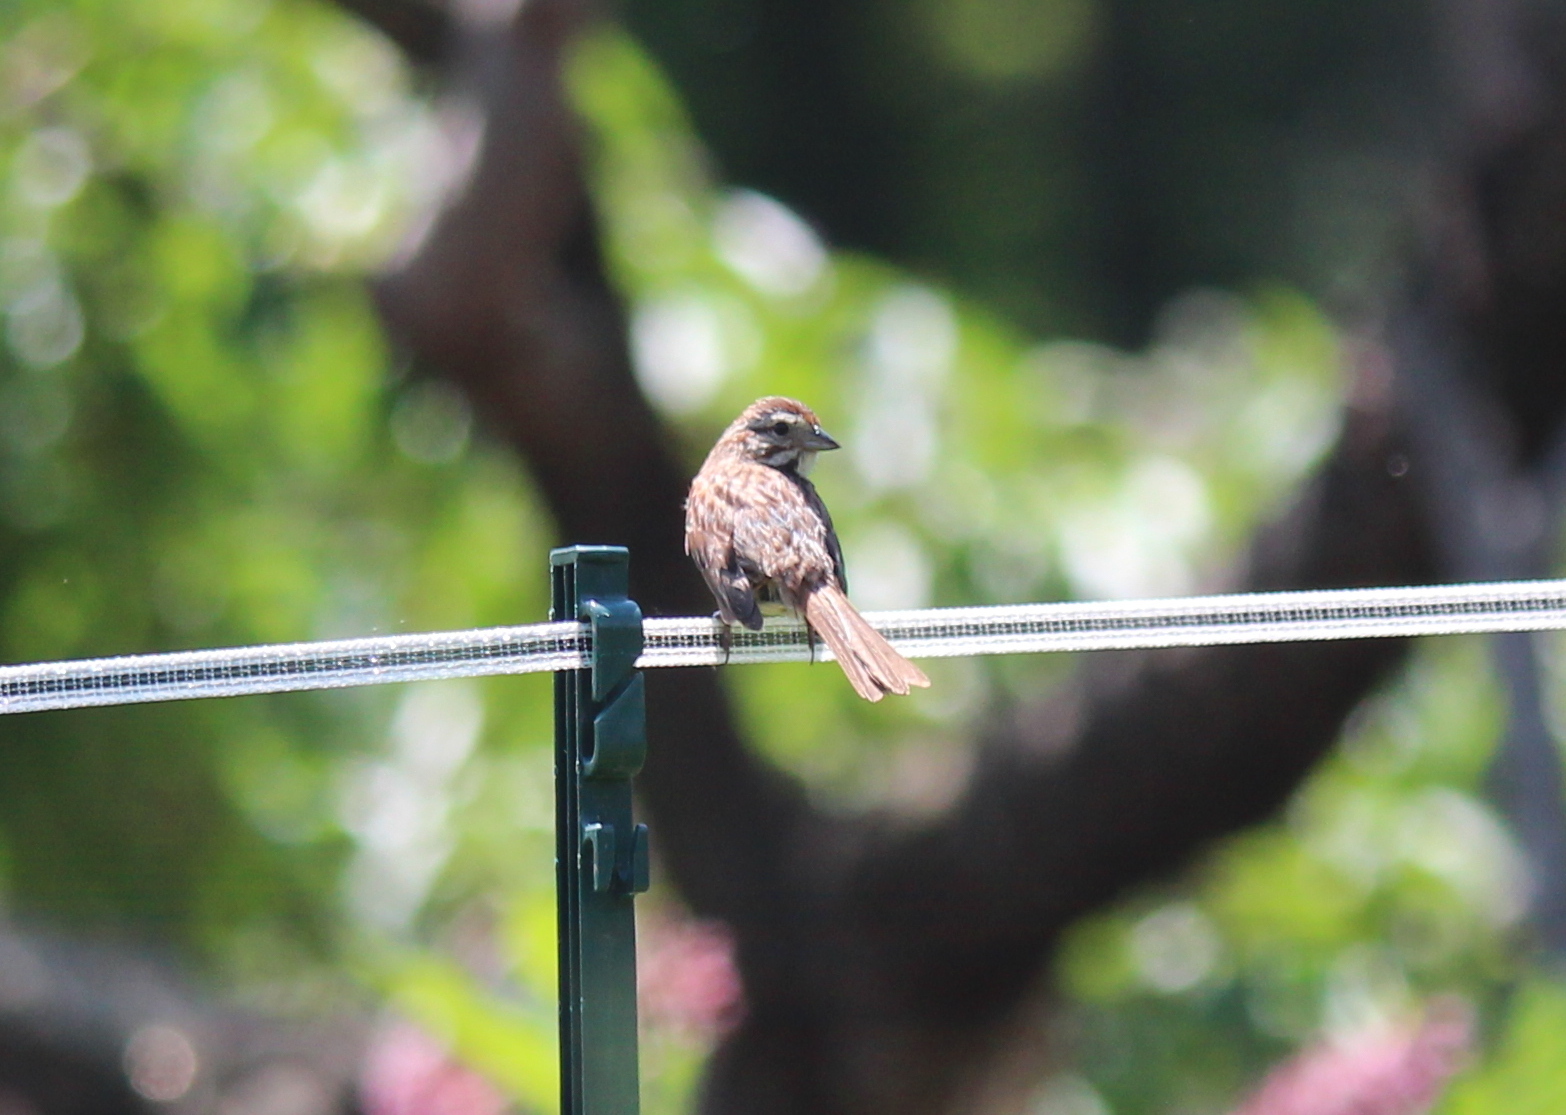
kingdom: Animalia
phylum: Chordata
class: Aves
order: Passeriformes
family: Passerellidae
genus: Melospiza
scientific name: Melospiza melodia
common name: Song sparrow
